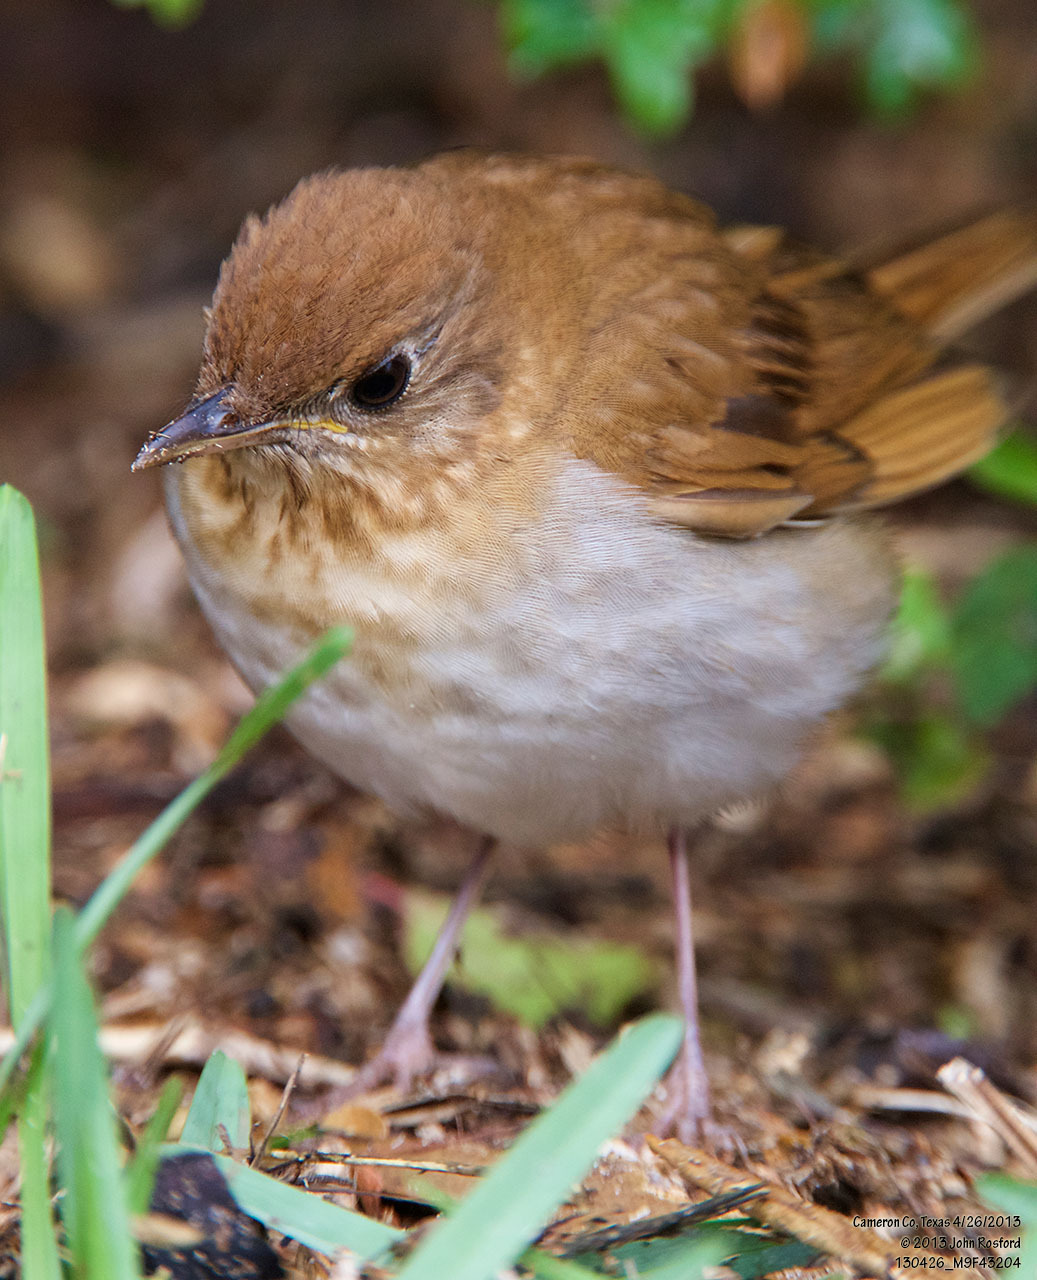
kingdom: Animalia
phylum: Chordata
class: Aves
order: Passeriformes
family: Turdidae
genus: Catharus
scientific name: Catharus fuscescens
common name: Veery
